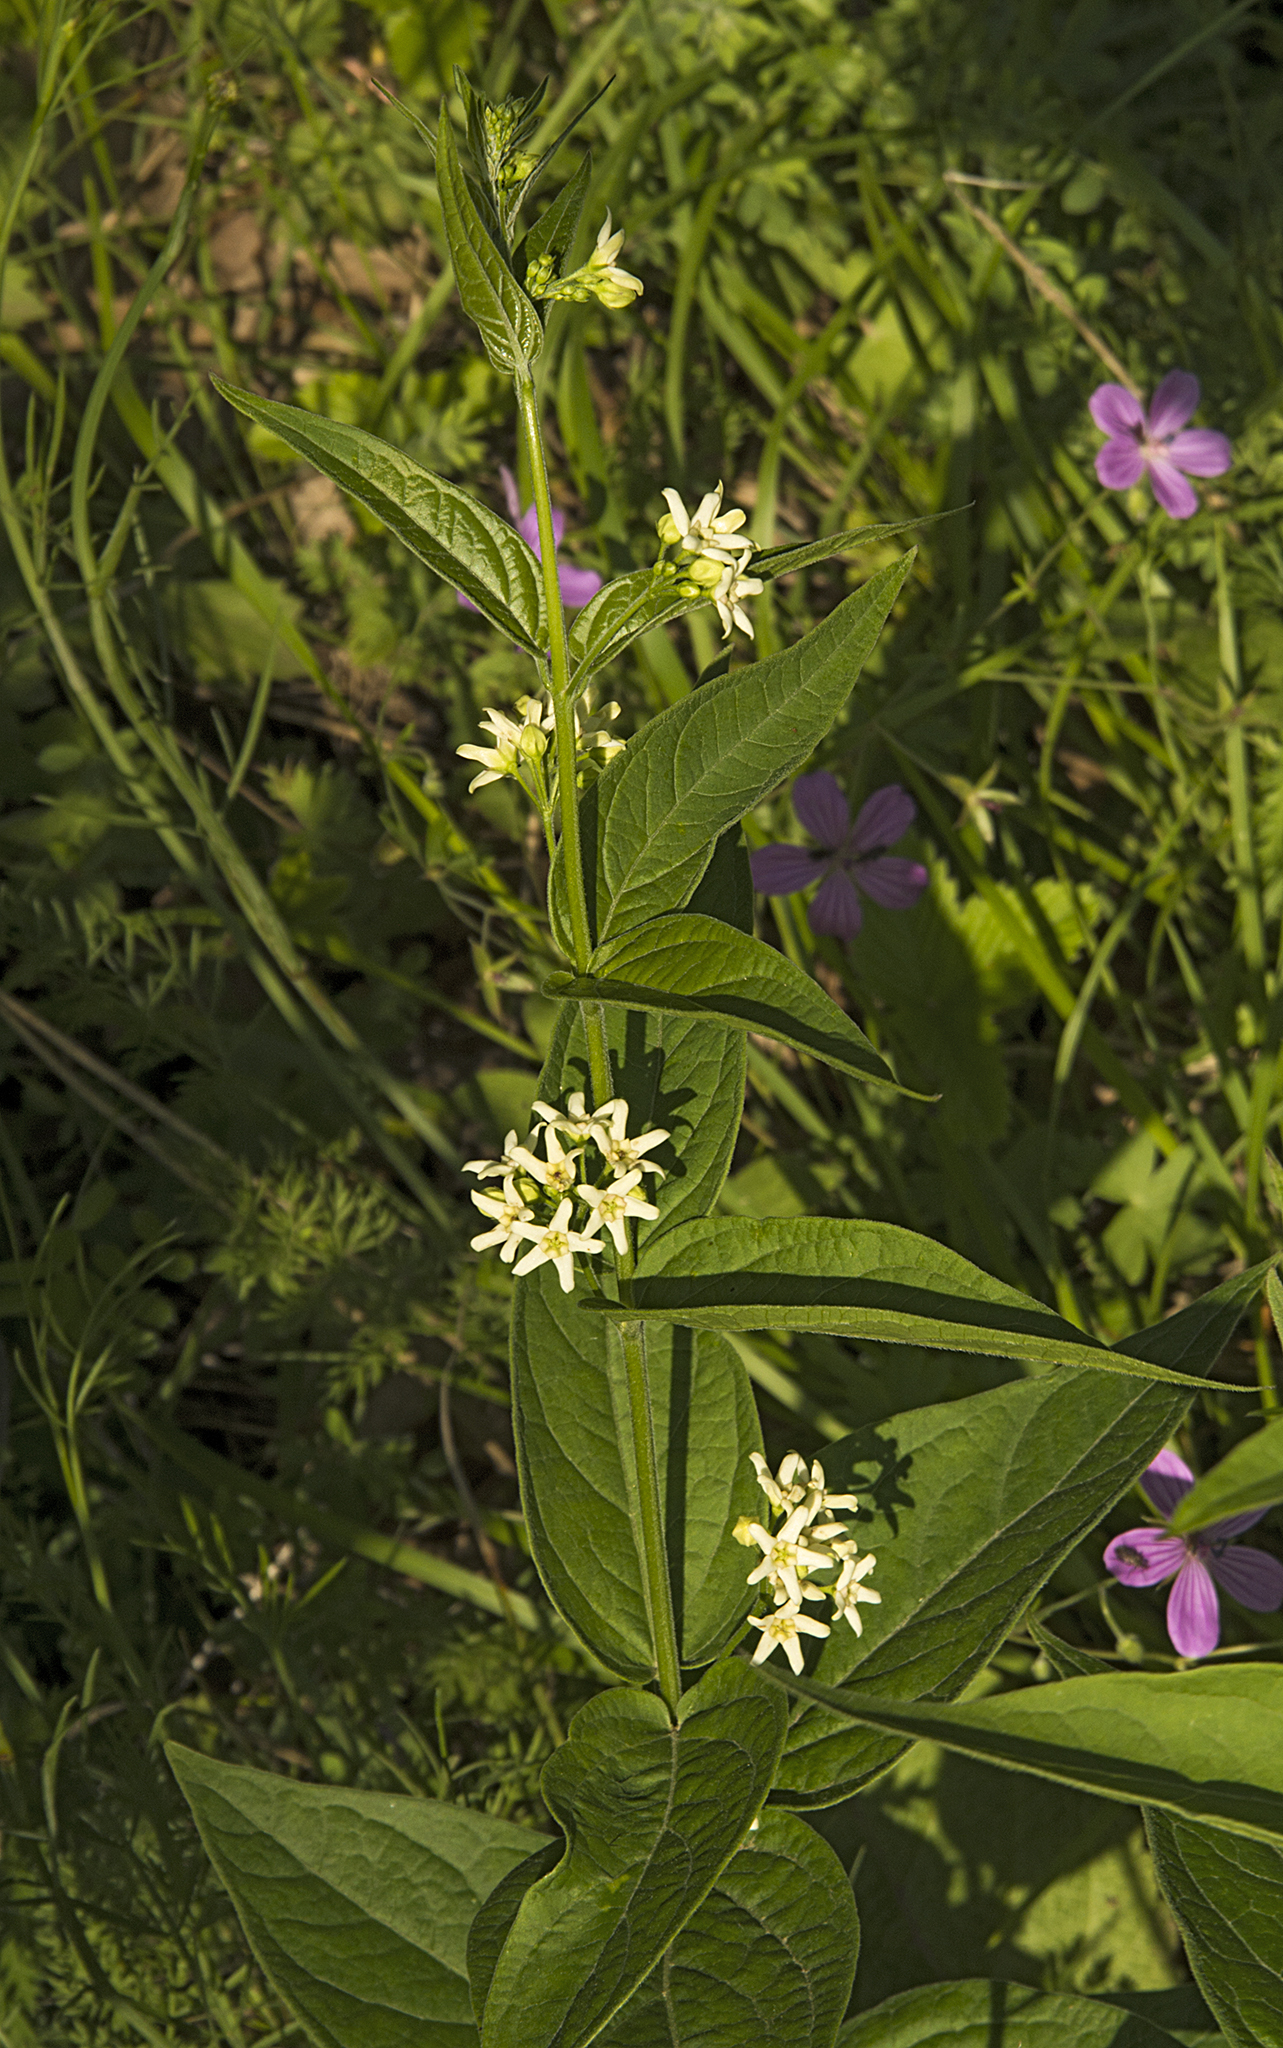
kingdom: Plantae
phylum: Tracheophyta
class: Magnoliopsida
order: Gentianales
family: Apocynaceae
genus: Vincetoxicum
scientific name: Vincetoxicum hirundinaria
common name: White swallowwort
